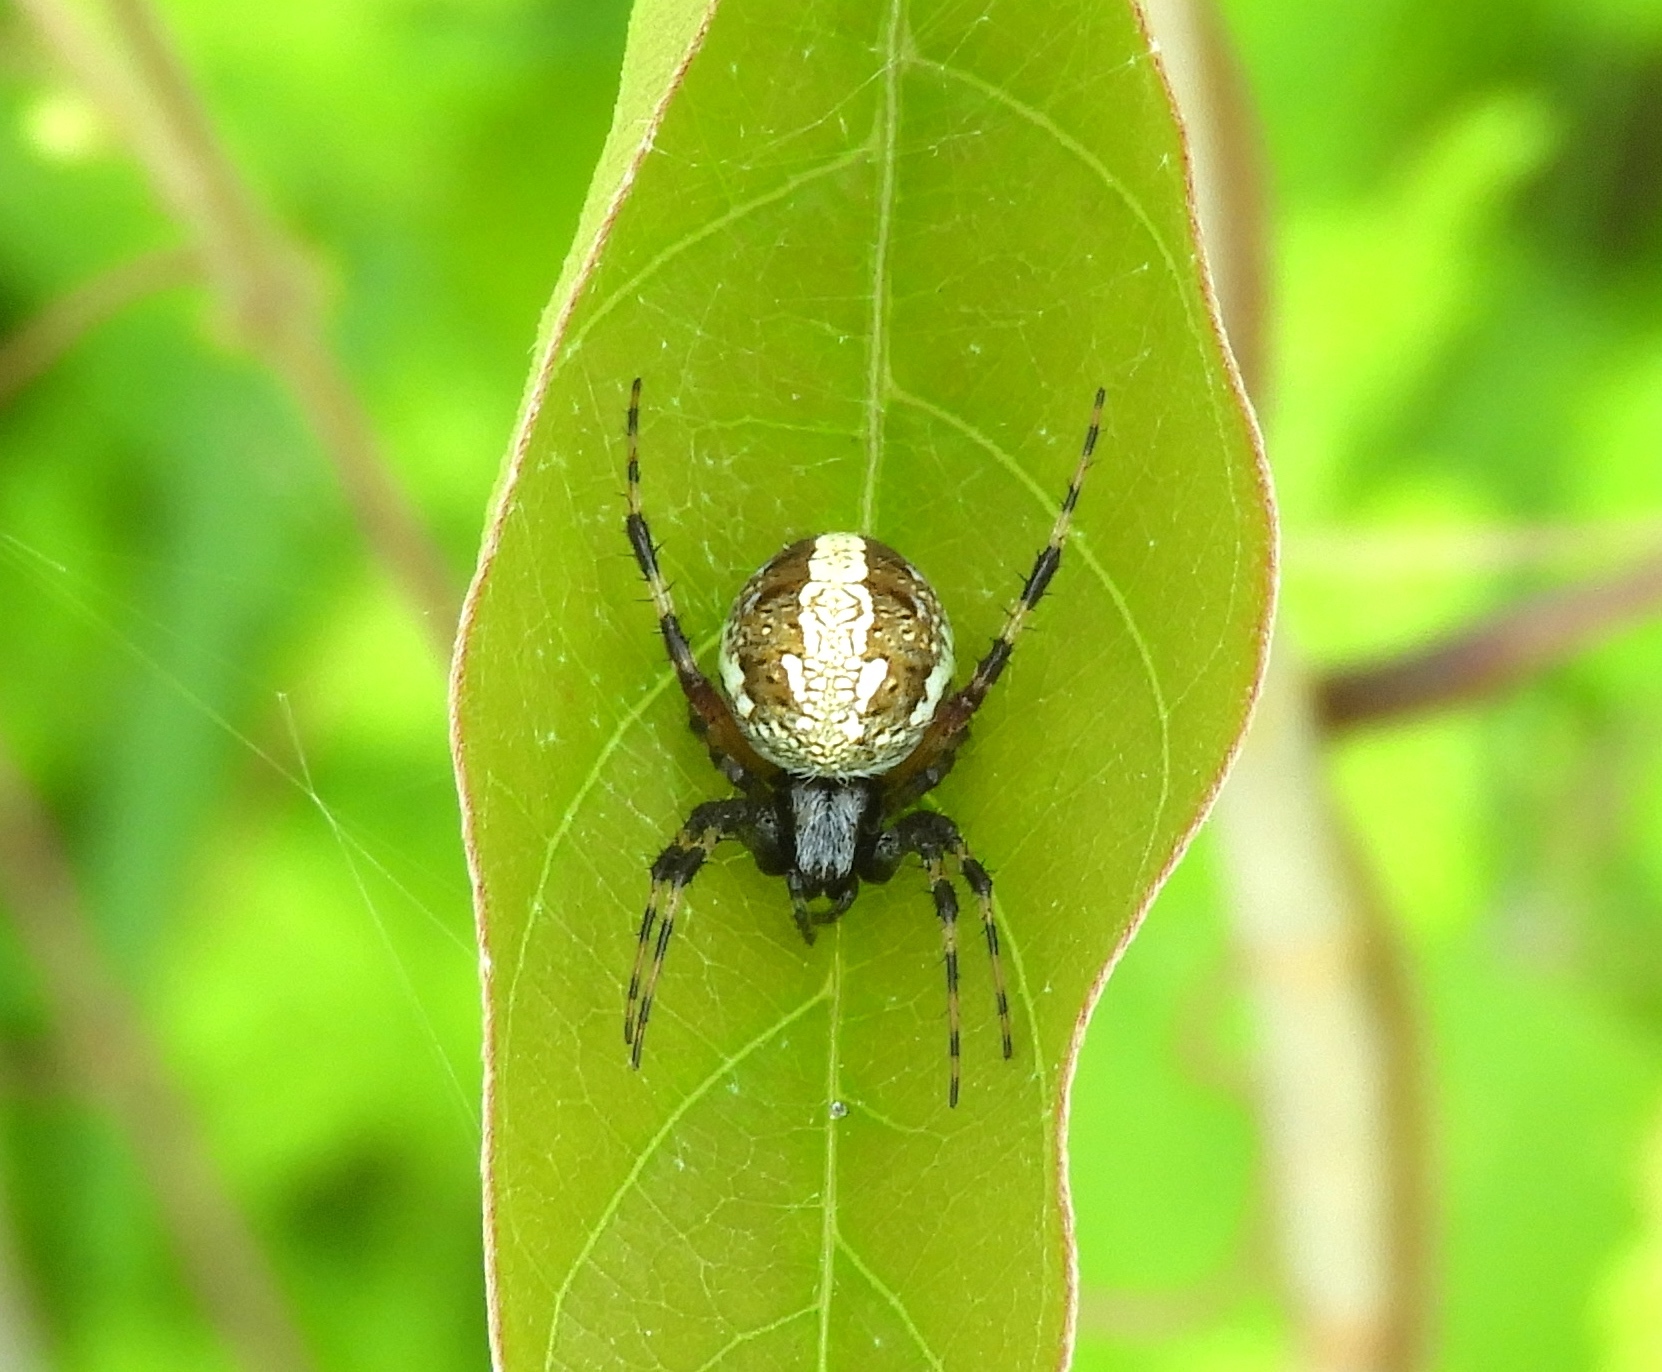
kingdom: Animalia
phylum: Arthropoda
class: Arachnida
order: Araneae
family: Araneidae
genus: Neoscona
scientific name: Neoscona
